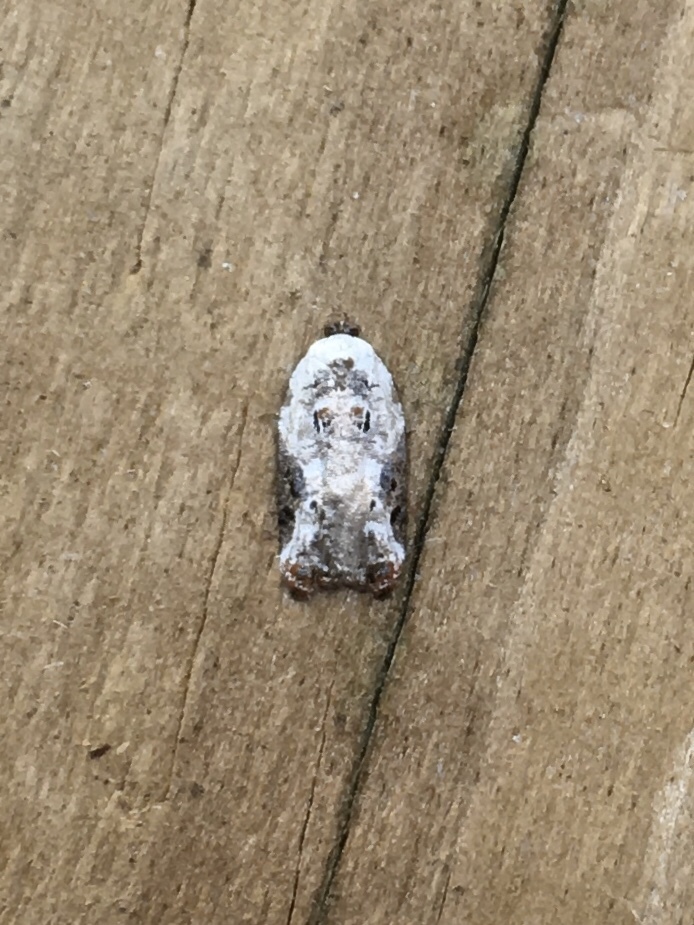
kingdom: Animalia
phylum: Arthropoda
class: Insecta
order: Lepidoptera
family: Tortricidae
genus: Acleris
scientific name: Acleris nivisellana
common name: Snowy-shouldered acleris moth
